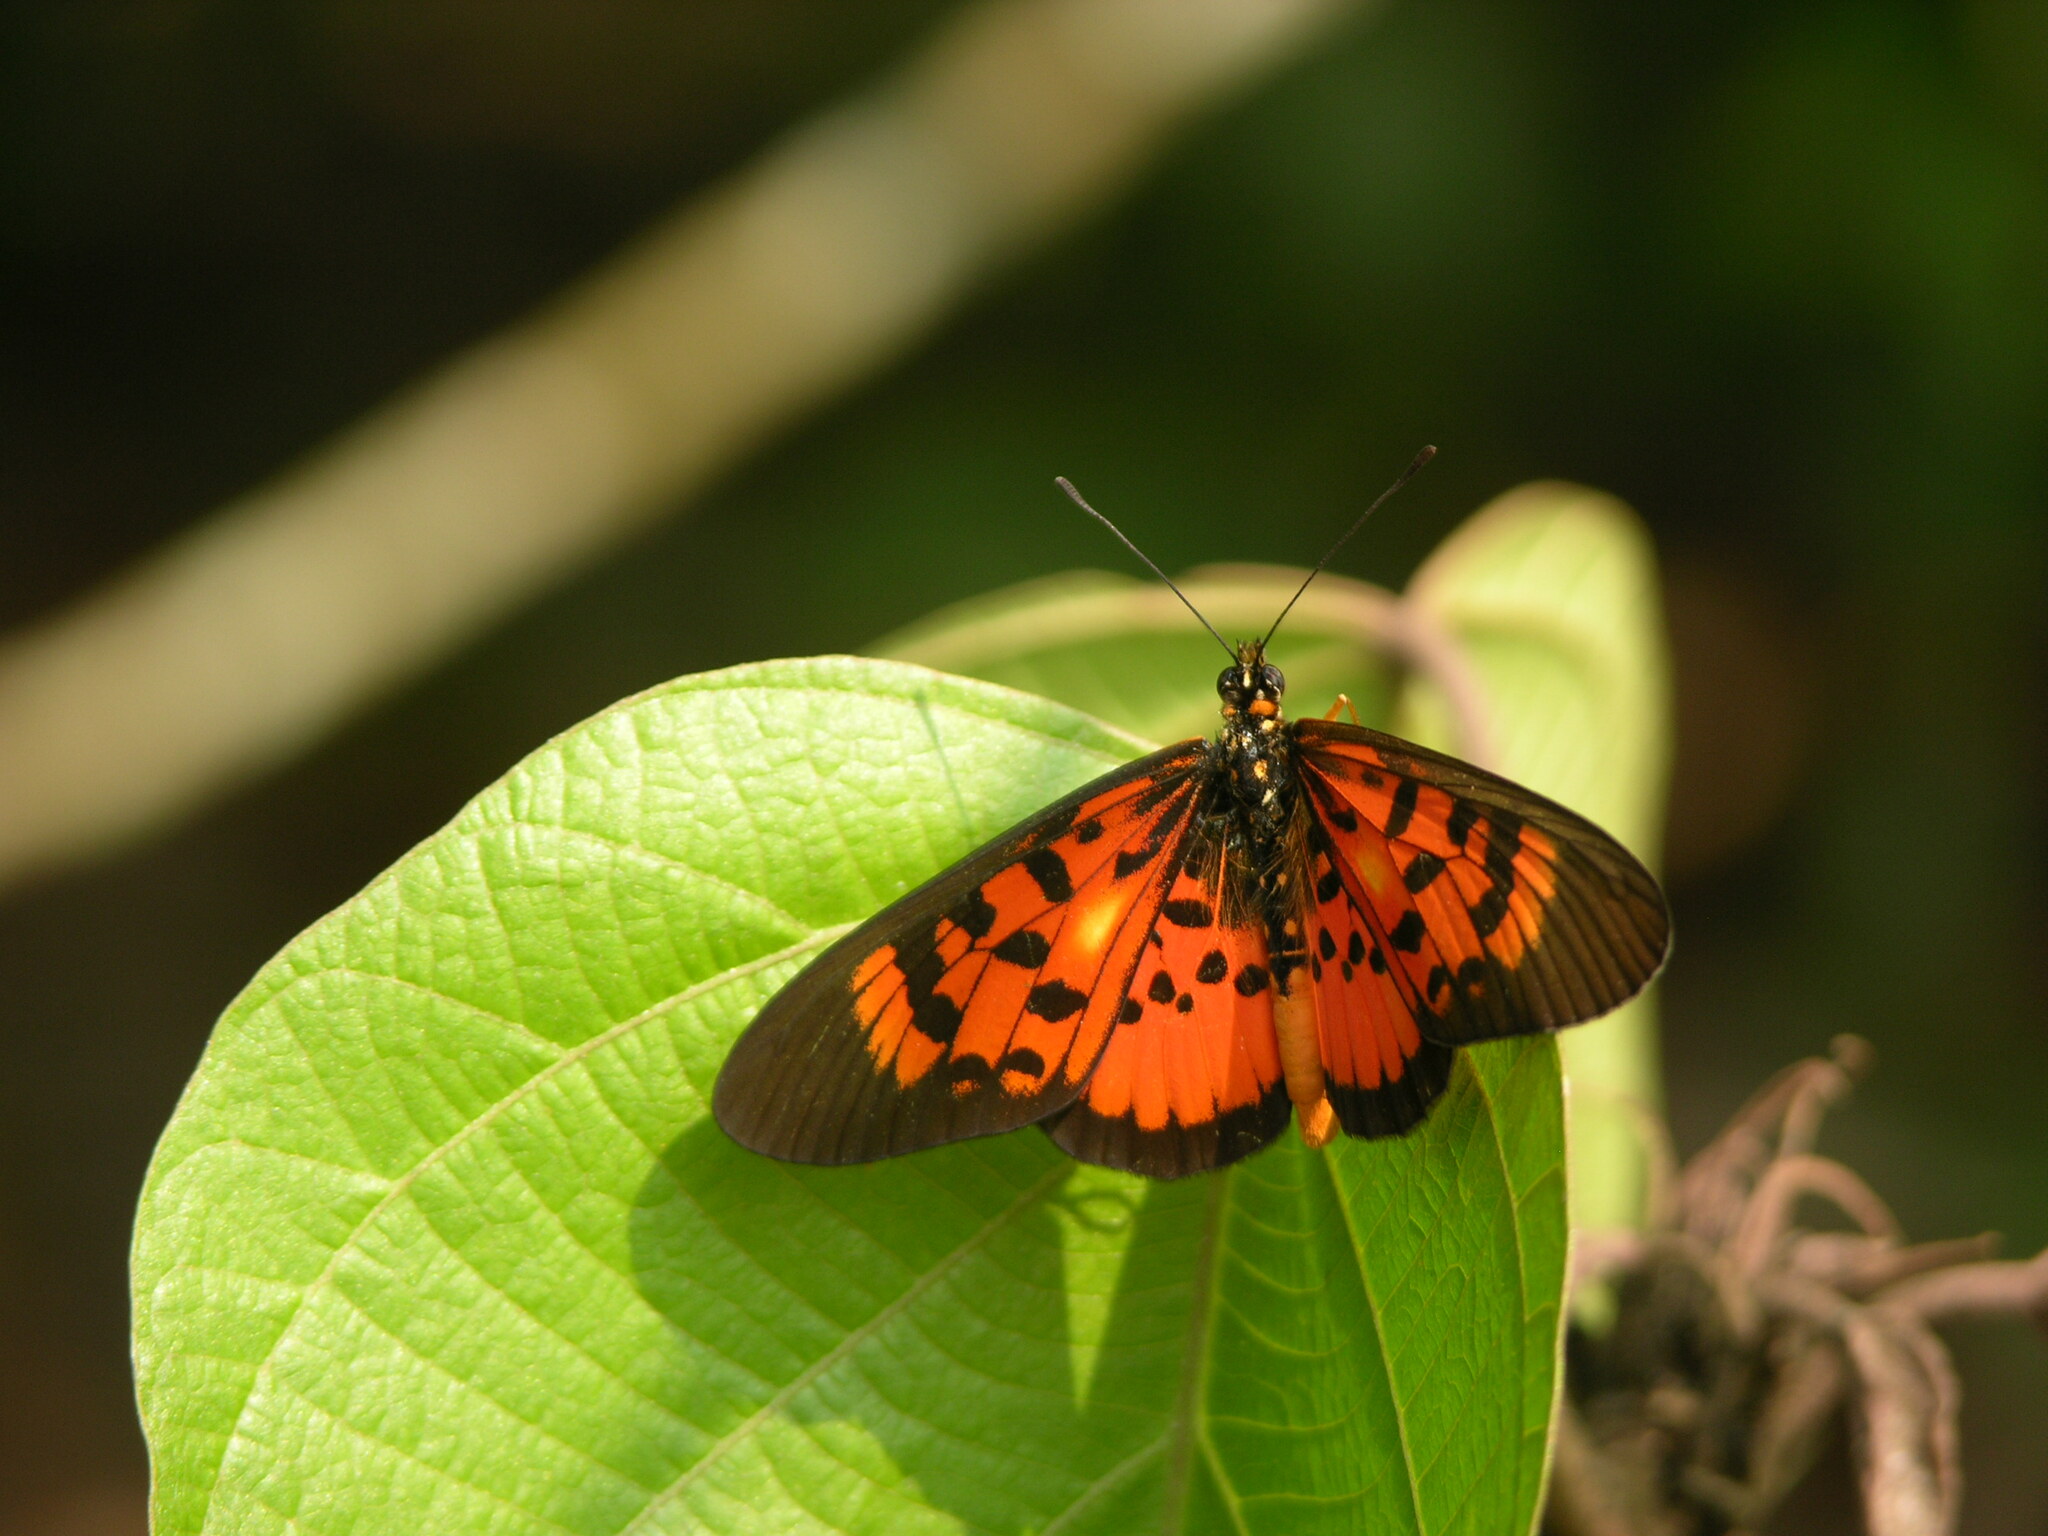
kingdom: Animalia
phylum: Arthropoda
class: Insecta
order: Lepidoptera
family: Nymphalidae
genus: Rubraea
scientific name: Rubraea
